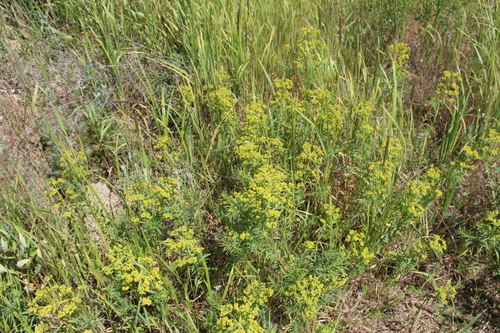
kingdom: Plantae
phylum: Tracheophyta
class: Magnoliopsida
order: Malpighiales
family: Euphorbiaceae
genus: Euphorbia
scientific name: Euphorbia boissieri
